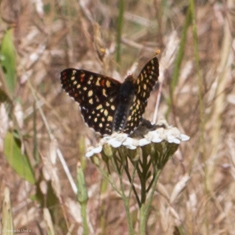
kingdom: Animalia
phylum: Arthropoda
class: Insecta
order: Lepidoptera
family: Nymphalidae
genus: Occidryas
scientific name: Occidryas chalcedona
